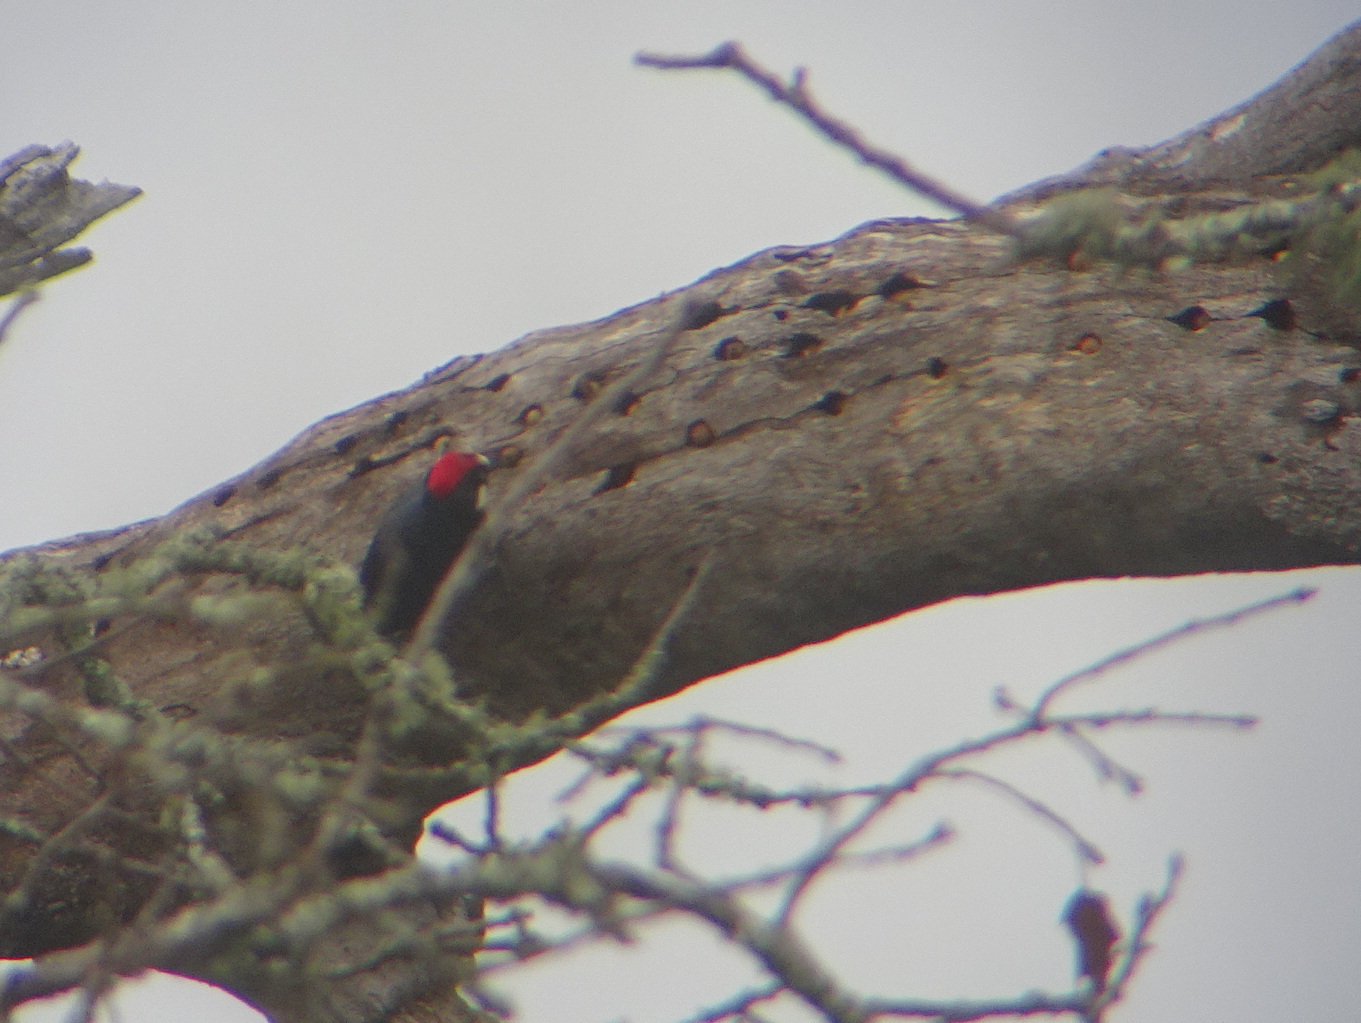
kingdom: Animalia
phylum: Chordata
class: Aves
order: Piciformes
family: Picidae
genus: Melanerpes
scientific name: Melanerpes formicivorus
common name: Acorn woodpecker
